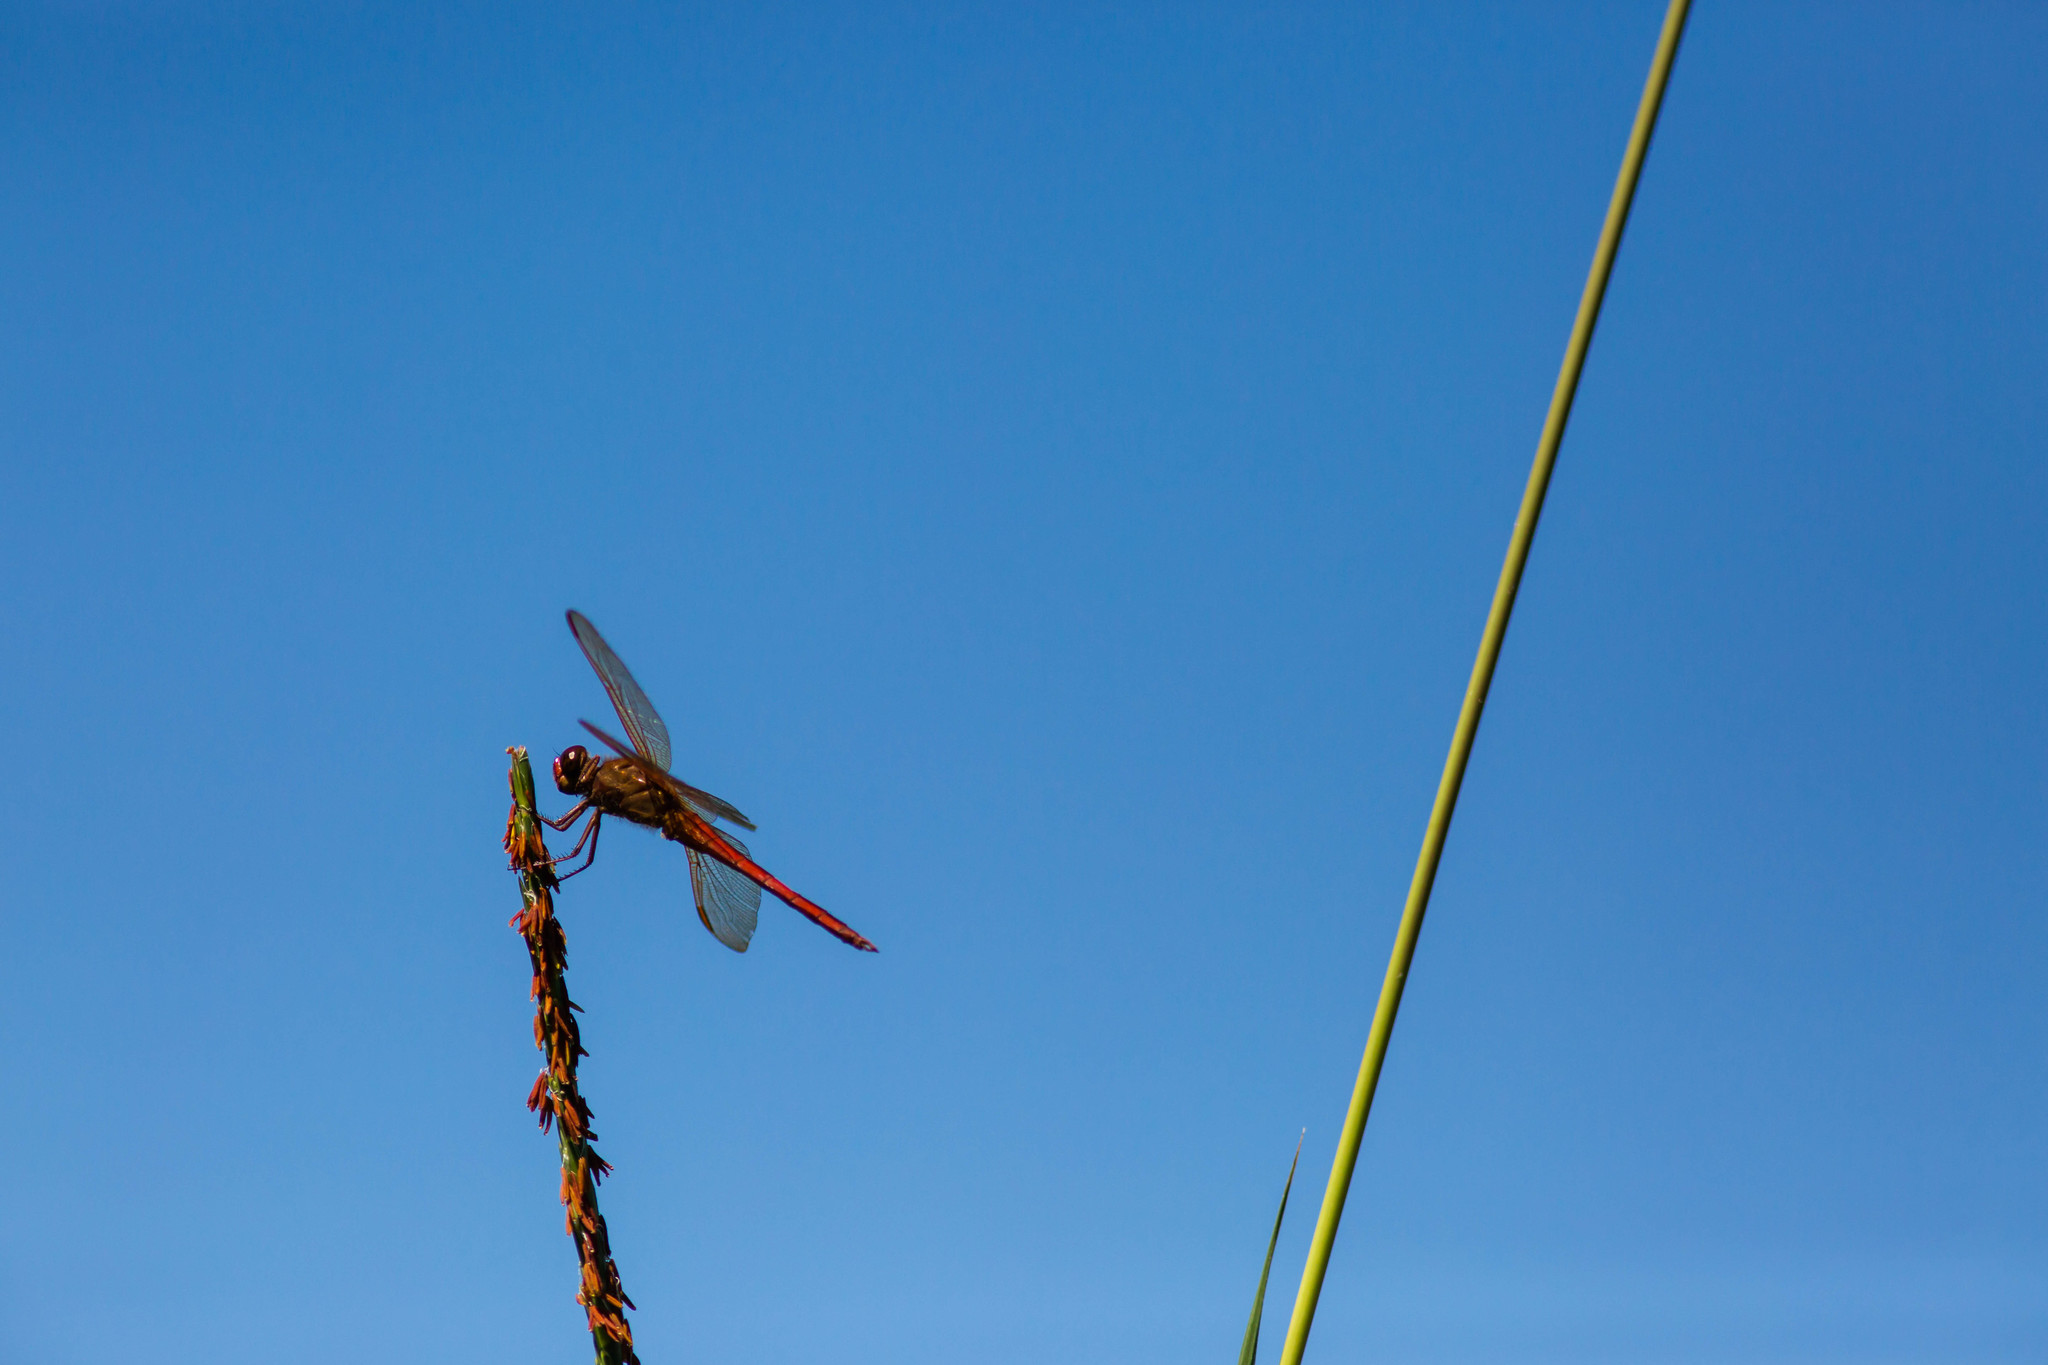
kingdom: Animalia
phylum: Arthropoda
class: Insecta
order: Odonata
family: Libellulidae
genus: Libellula
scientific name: Libellula needhami
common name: Needham's skimmer
